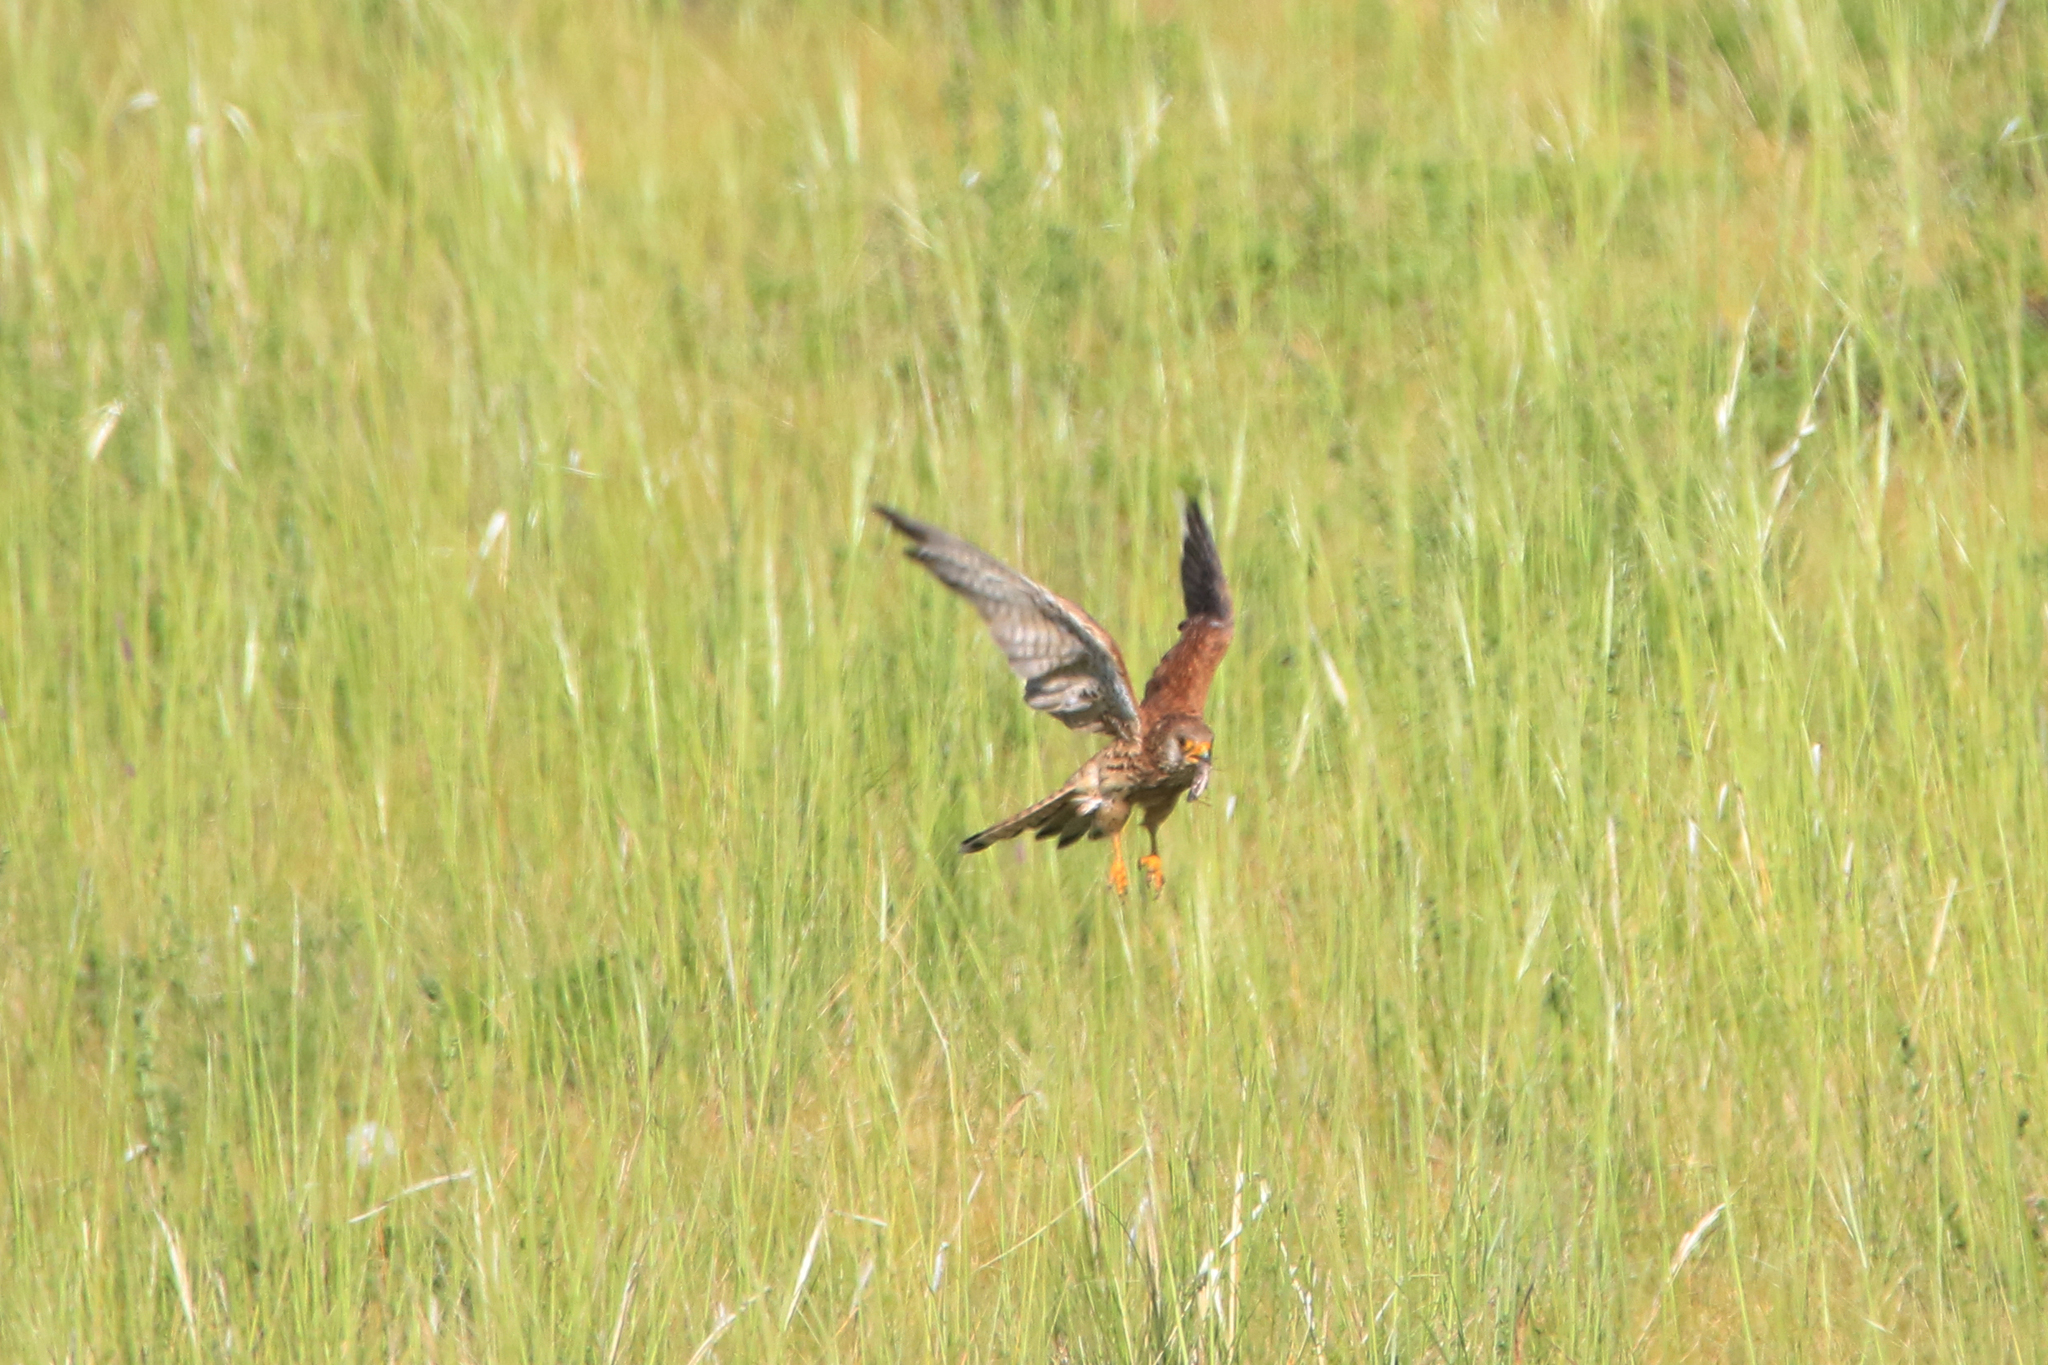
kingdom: Animalia
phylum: Chordata
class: Aves
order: Falconiformes
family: Falconidae
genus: Falco
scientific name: Falco tinnunculus
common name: Common kestrel
